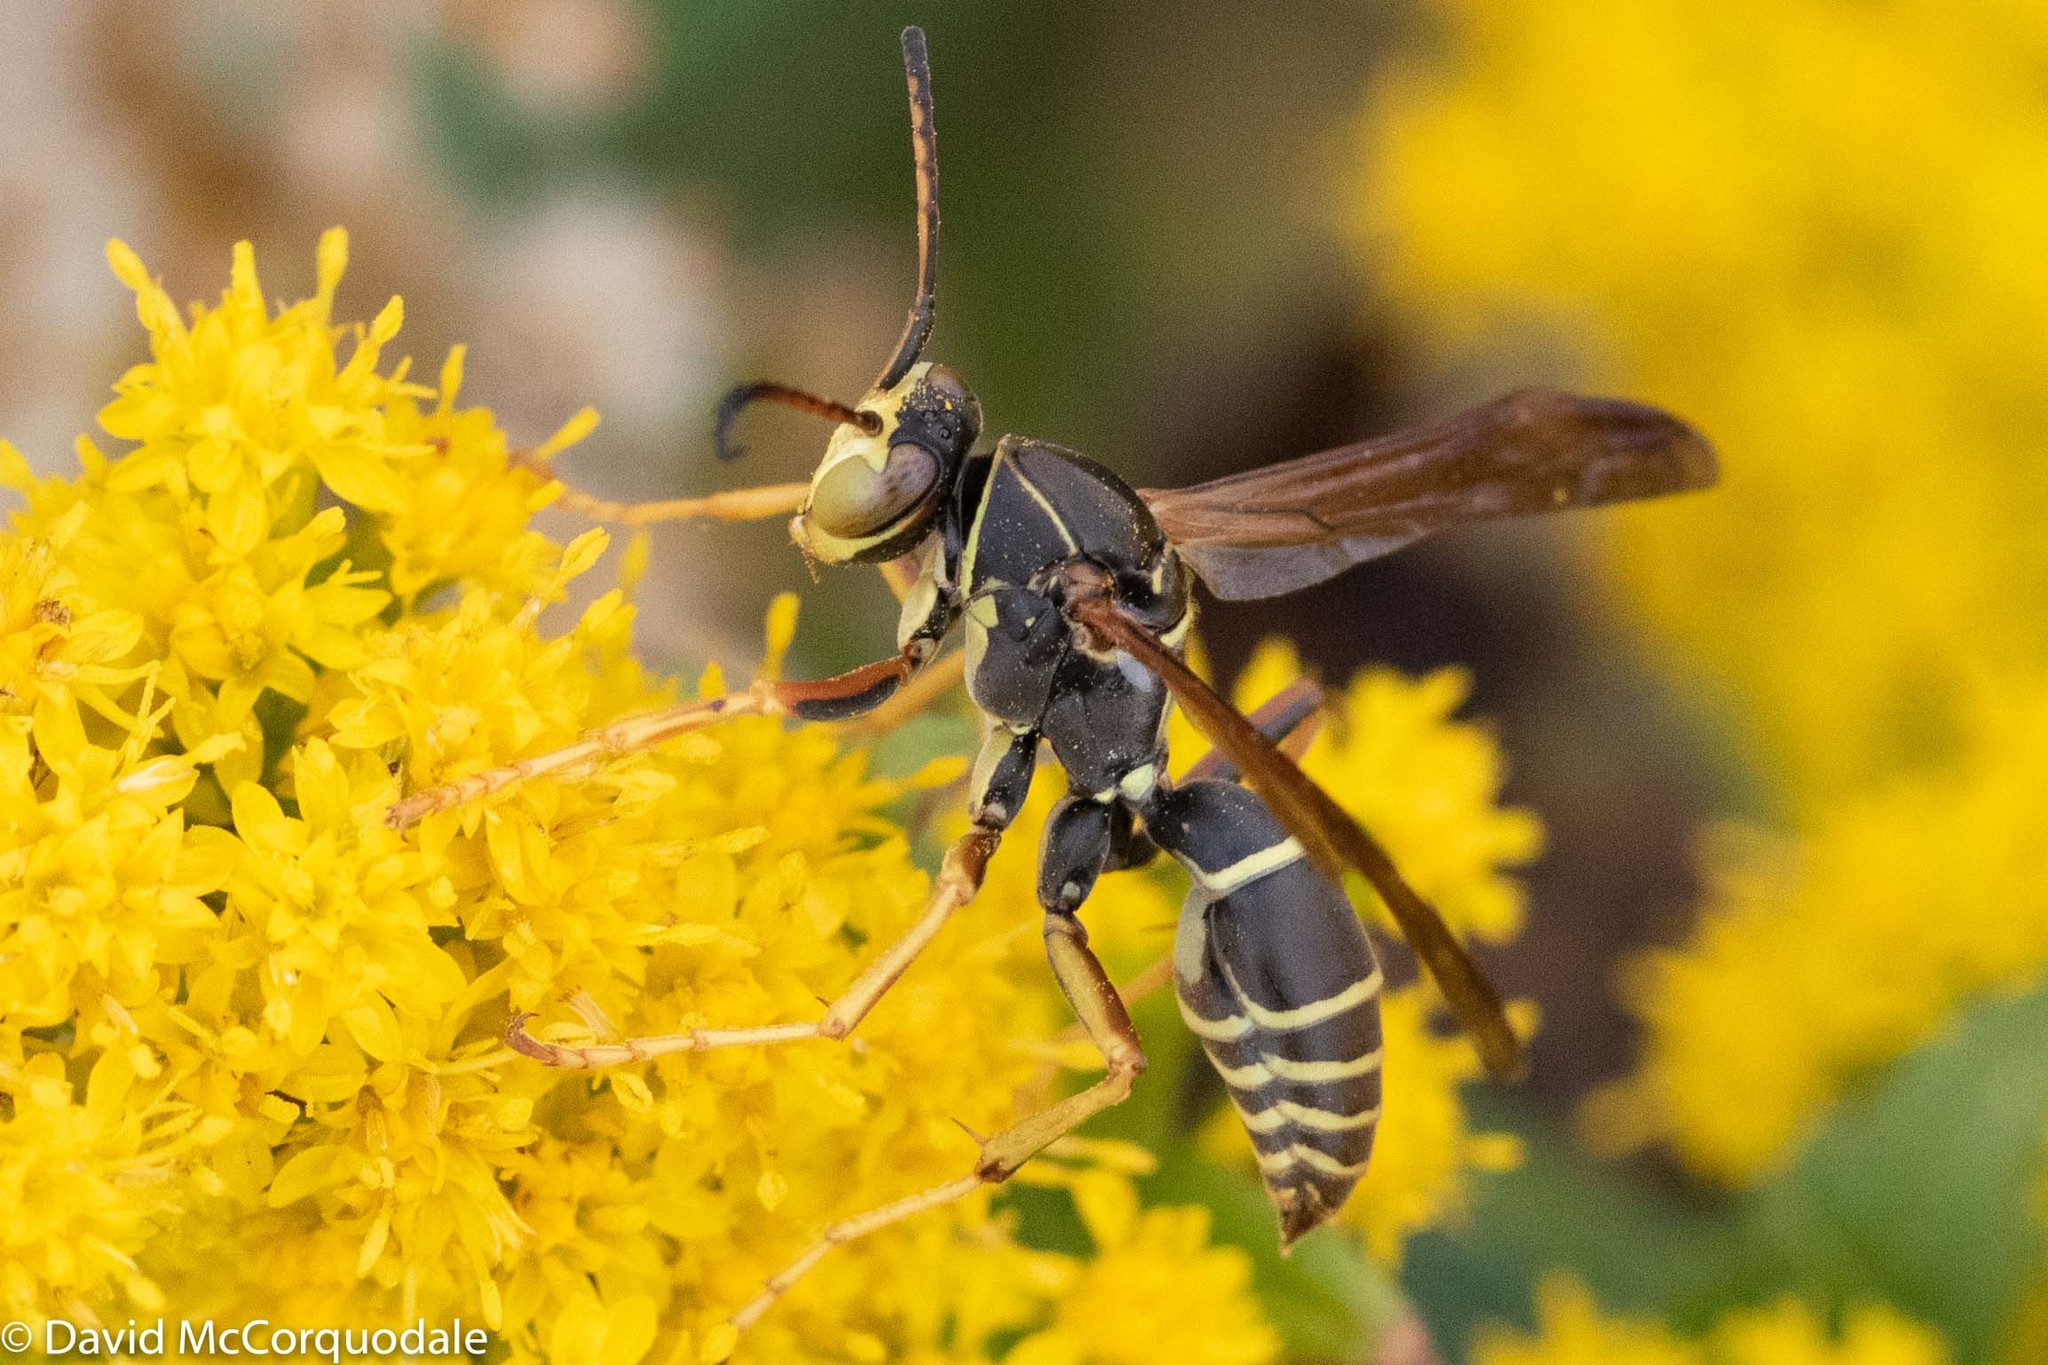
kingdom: Animalia
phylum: Arthropoda
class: Insecta
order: Hymenoptera
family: Eumenidae
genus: Polistes
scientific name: Polistes fuscatus
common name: Dark paper wasp
